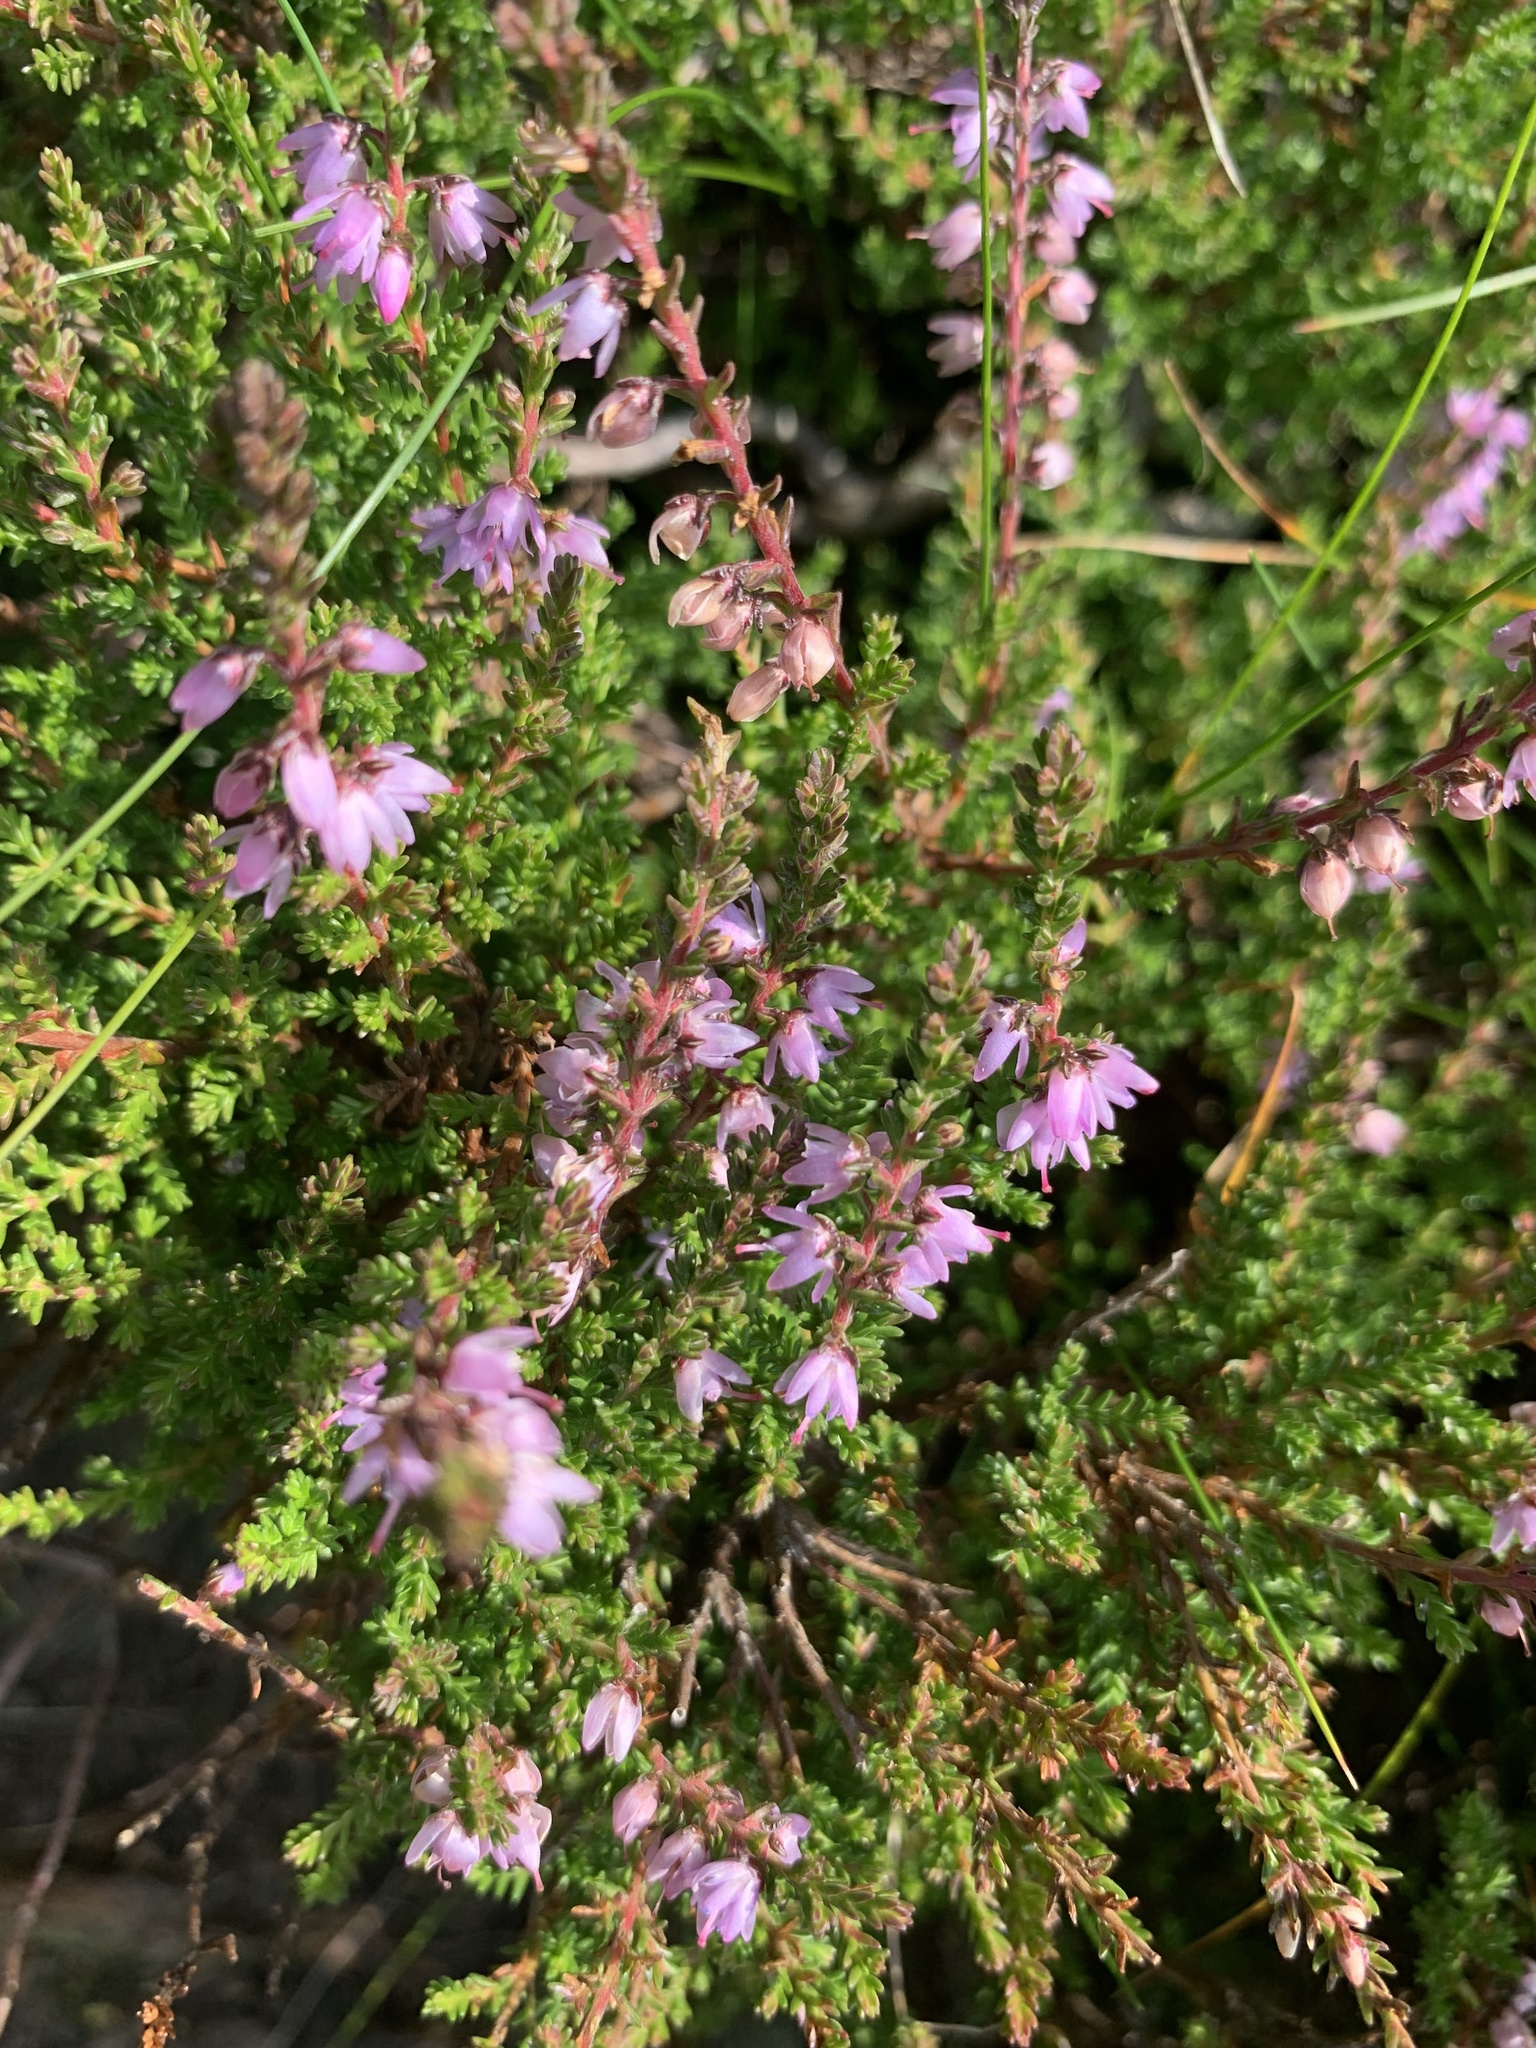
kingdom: Plantae
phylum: Tracheophyta
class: Magnoliopsida
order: Ericales
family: Ericaceae
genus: Calluna
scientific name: Calluna vulgaris
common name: Heather
